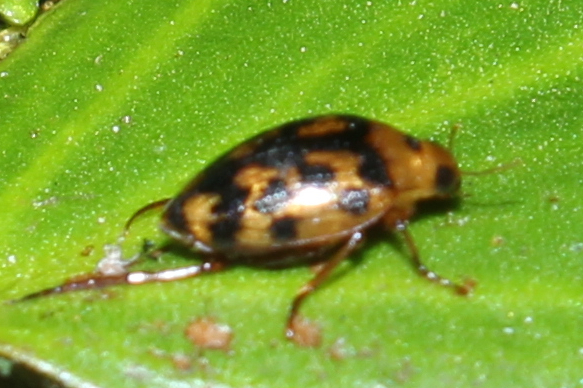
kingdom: Animalia
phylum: Arthropoda
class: Insecta
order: Coleoptera
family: Haliplidae
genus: Haliplus
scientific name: Haliplus
